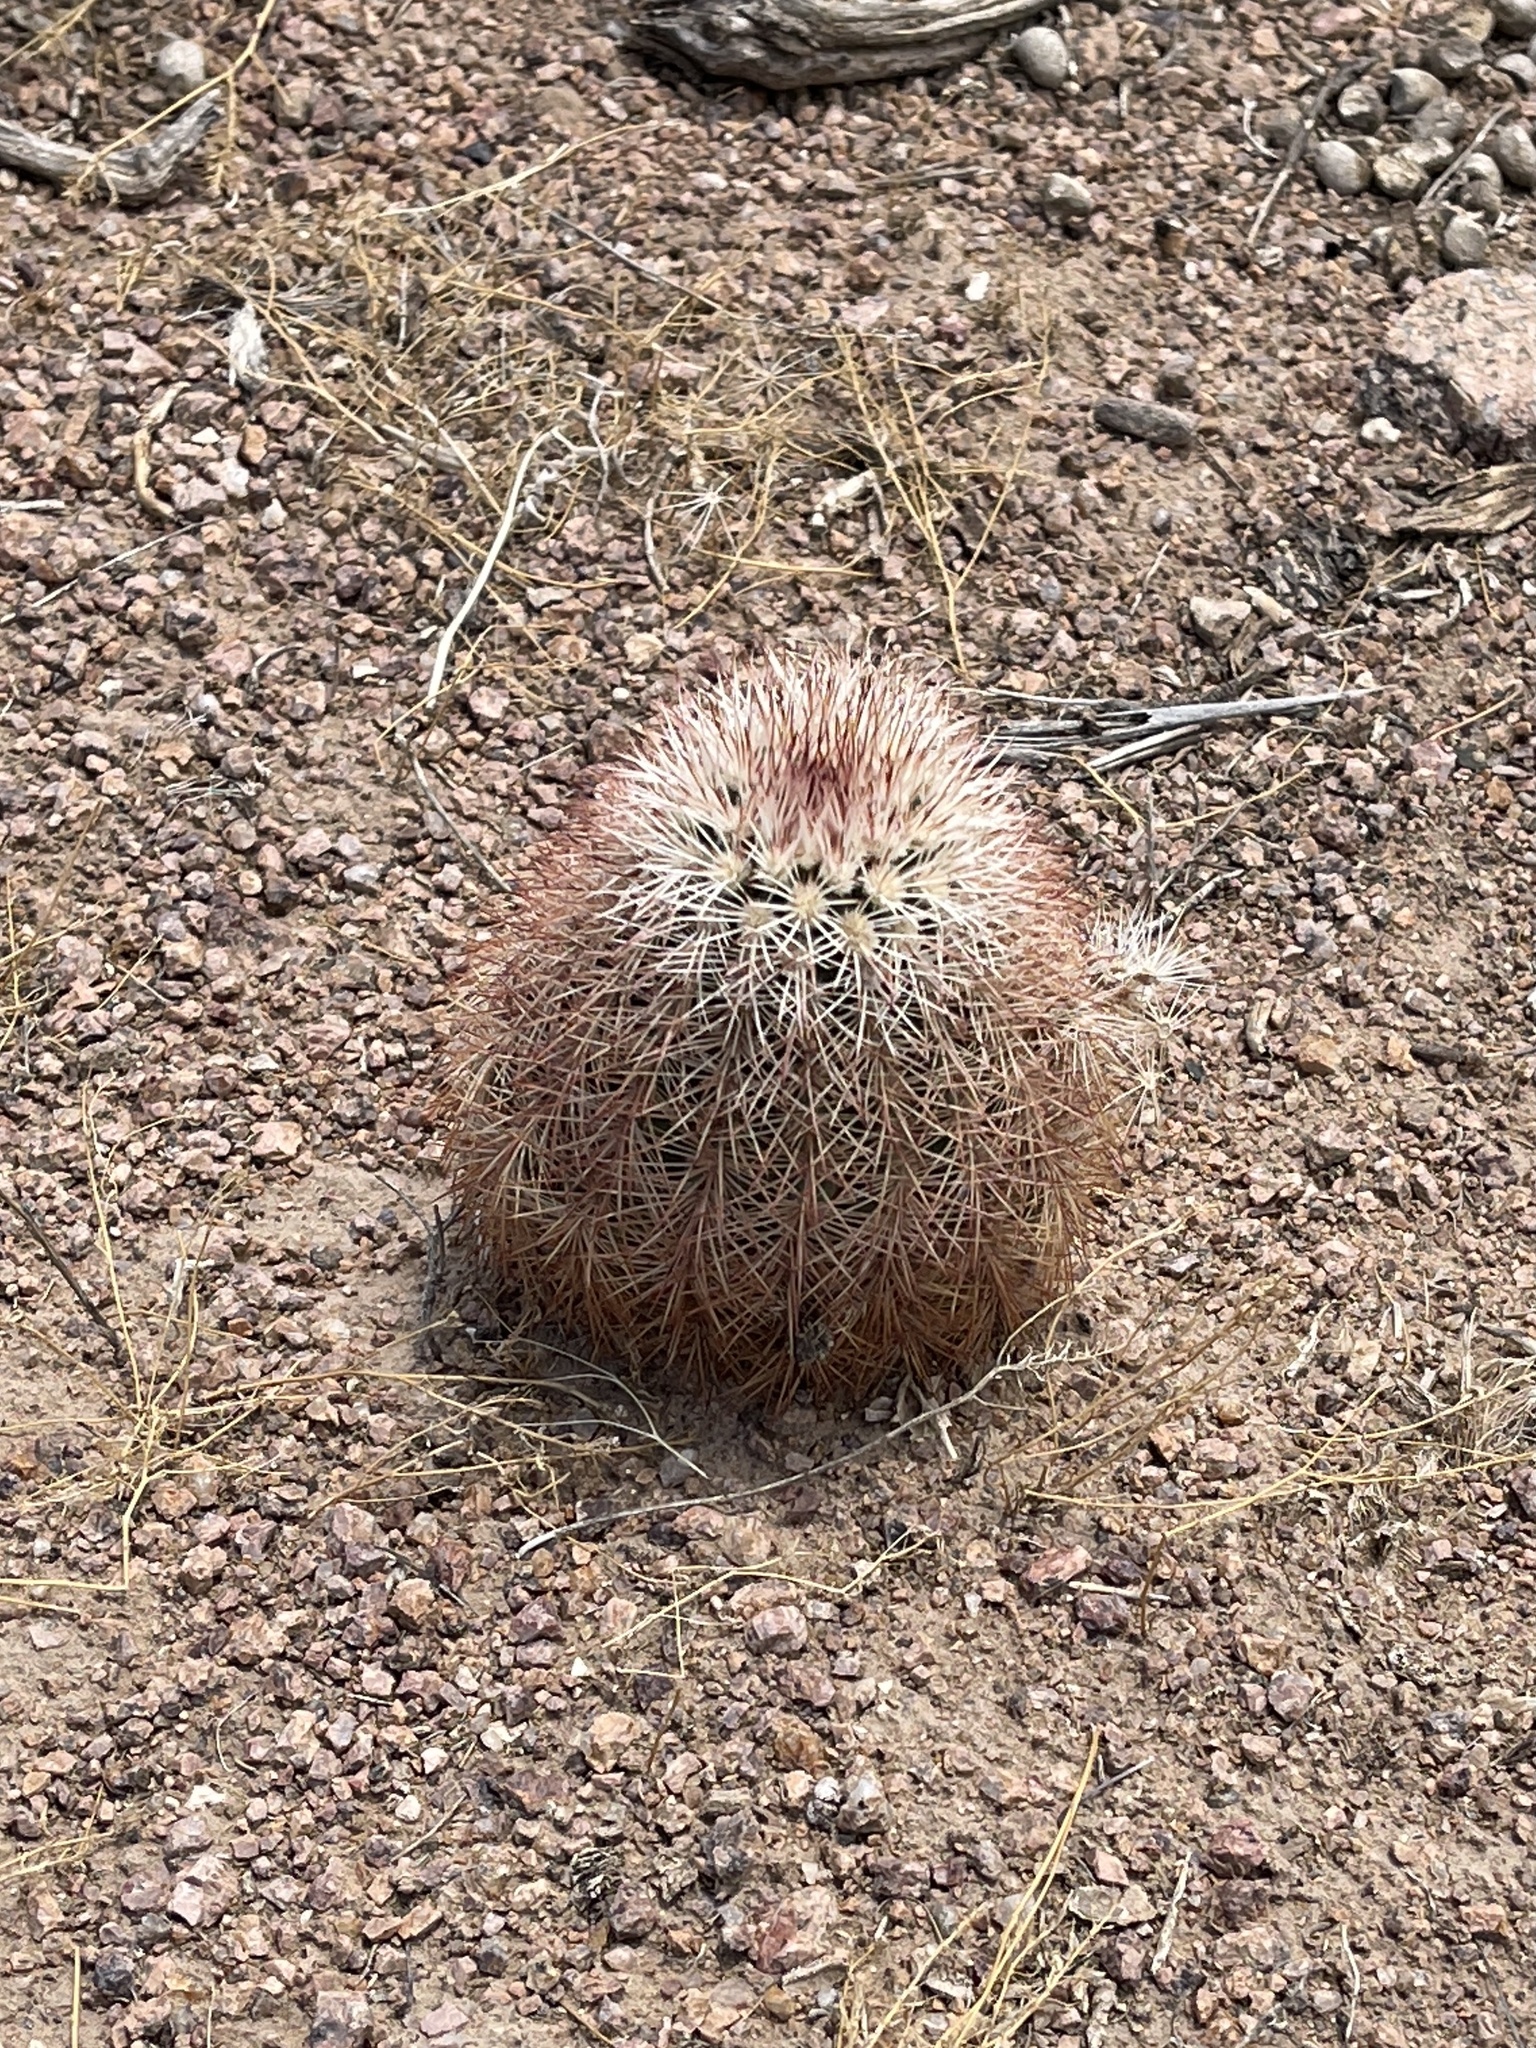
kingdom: Plantae
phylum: Tracheophyta
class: Magnoliopsida
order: Caryophyllales
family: Cactaceae
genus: Echinocereus
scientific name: Echinocereus dasyacanthus
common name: Spiny hedgehog cactus
